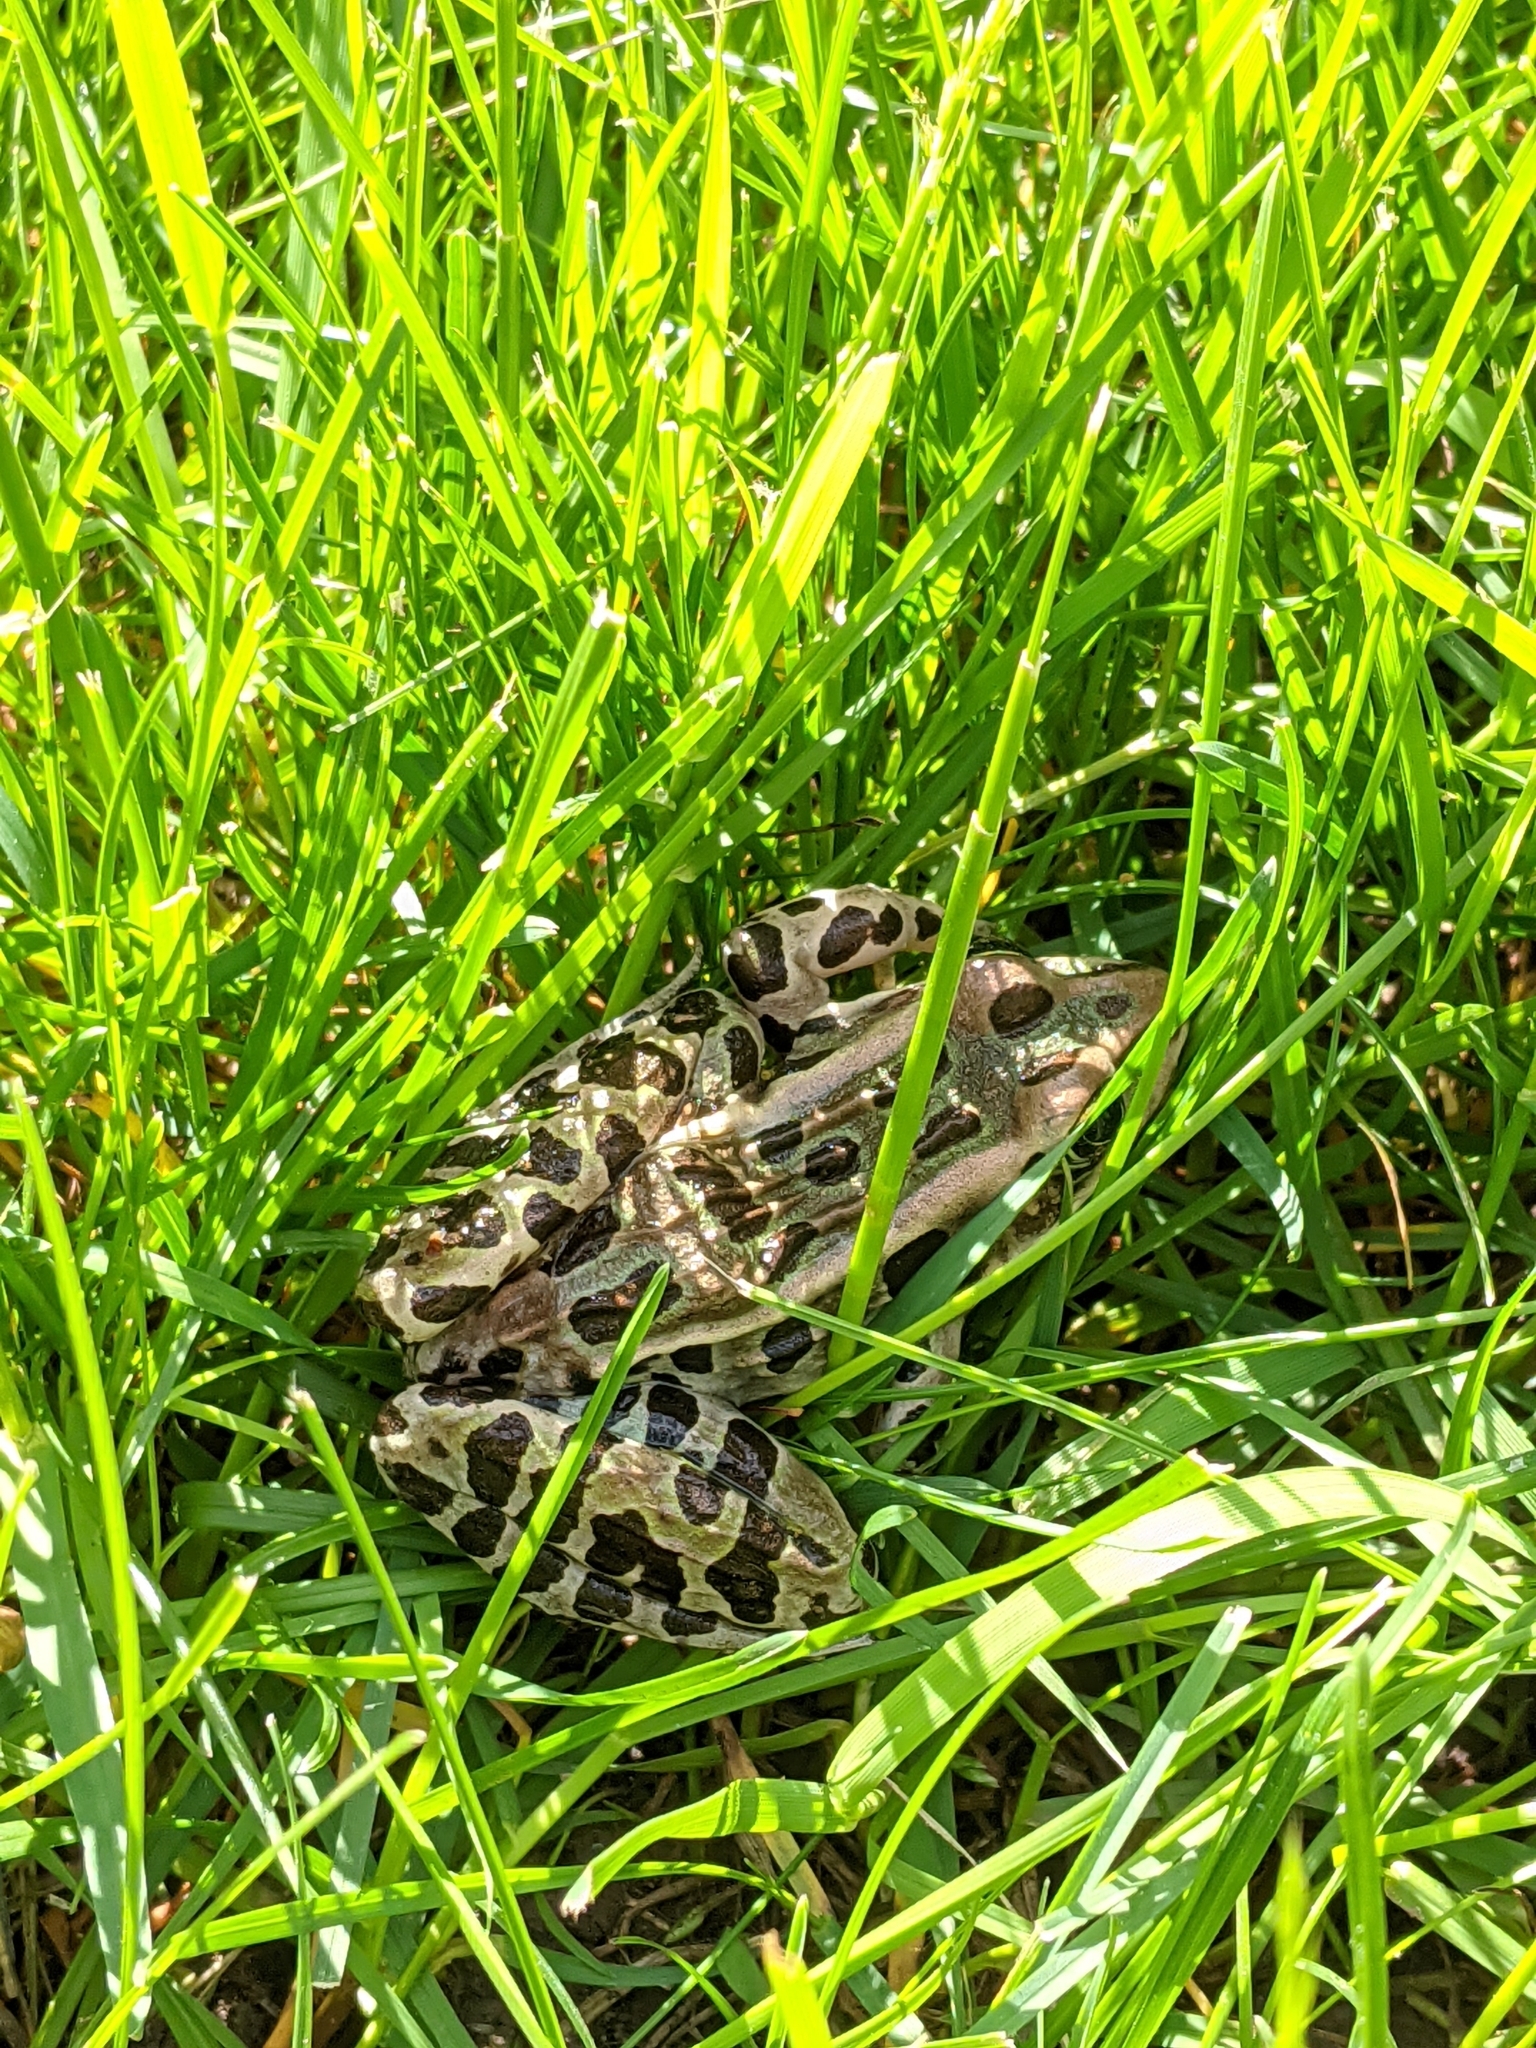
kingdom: Animalia
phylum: Chordata
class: Amphibia
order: Anura
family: Ranidae
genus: Lithobates
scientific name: Lithobates pipiens
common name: Northern leopard frog
